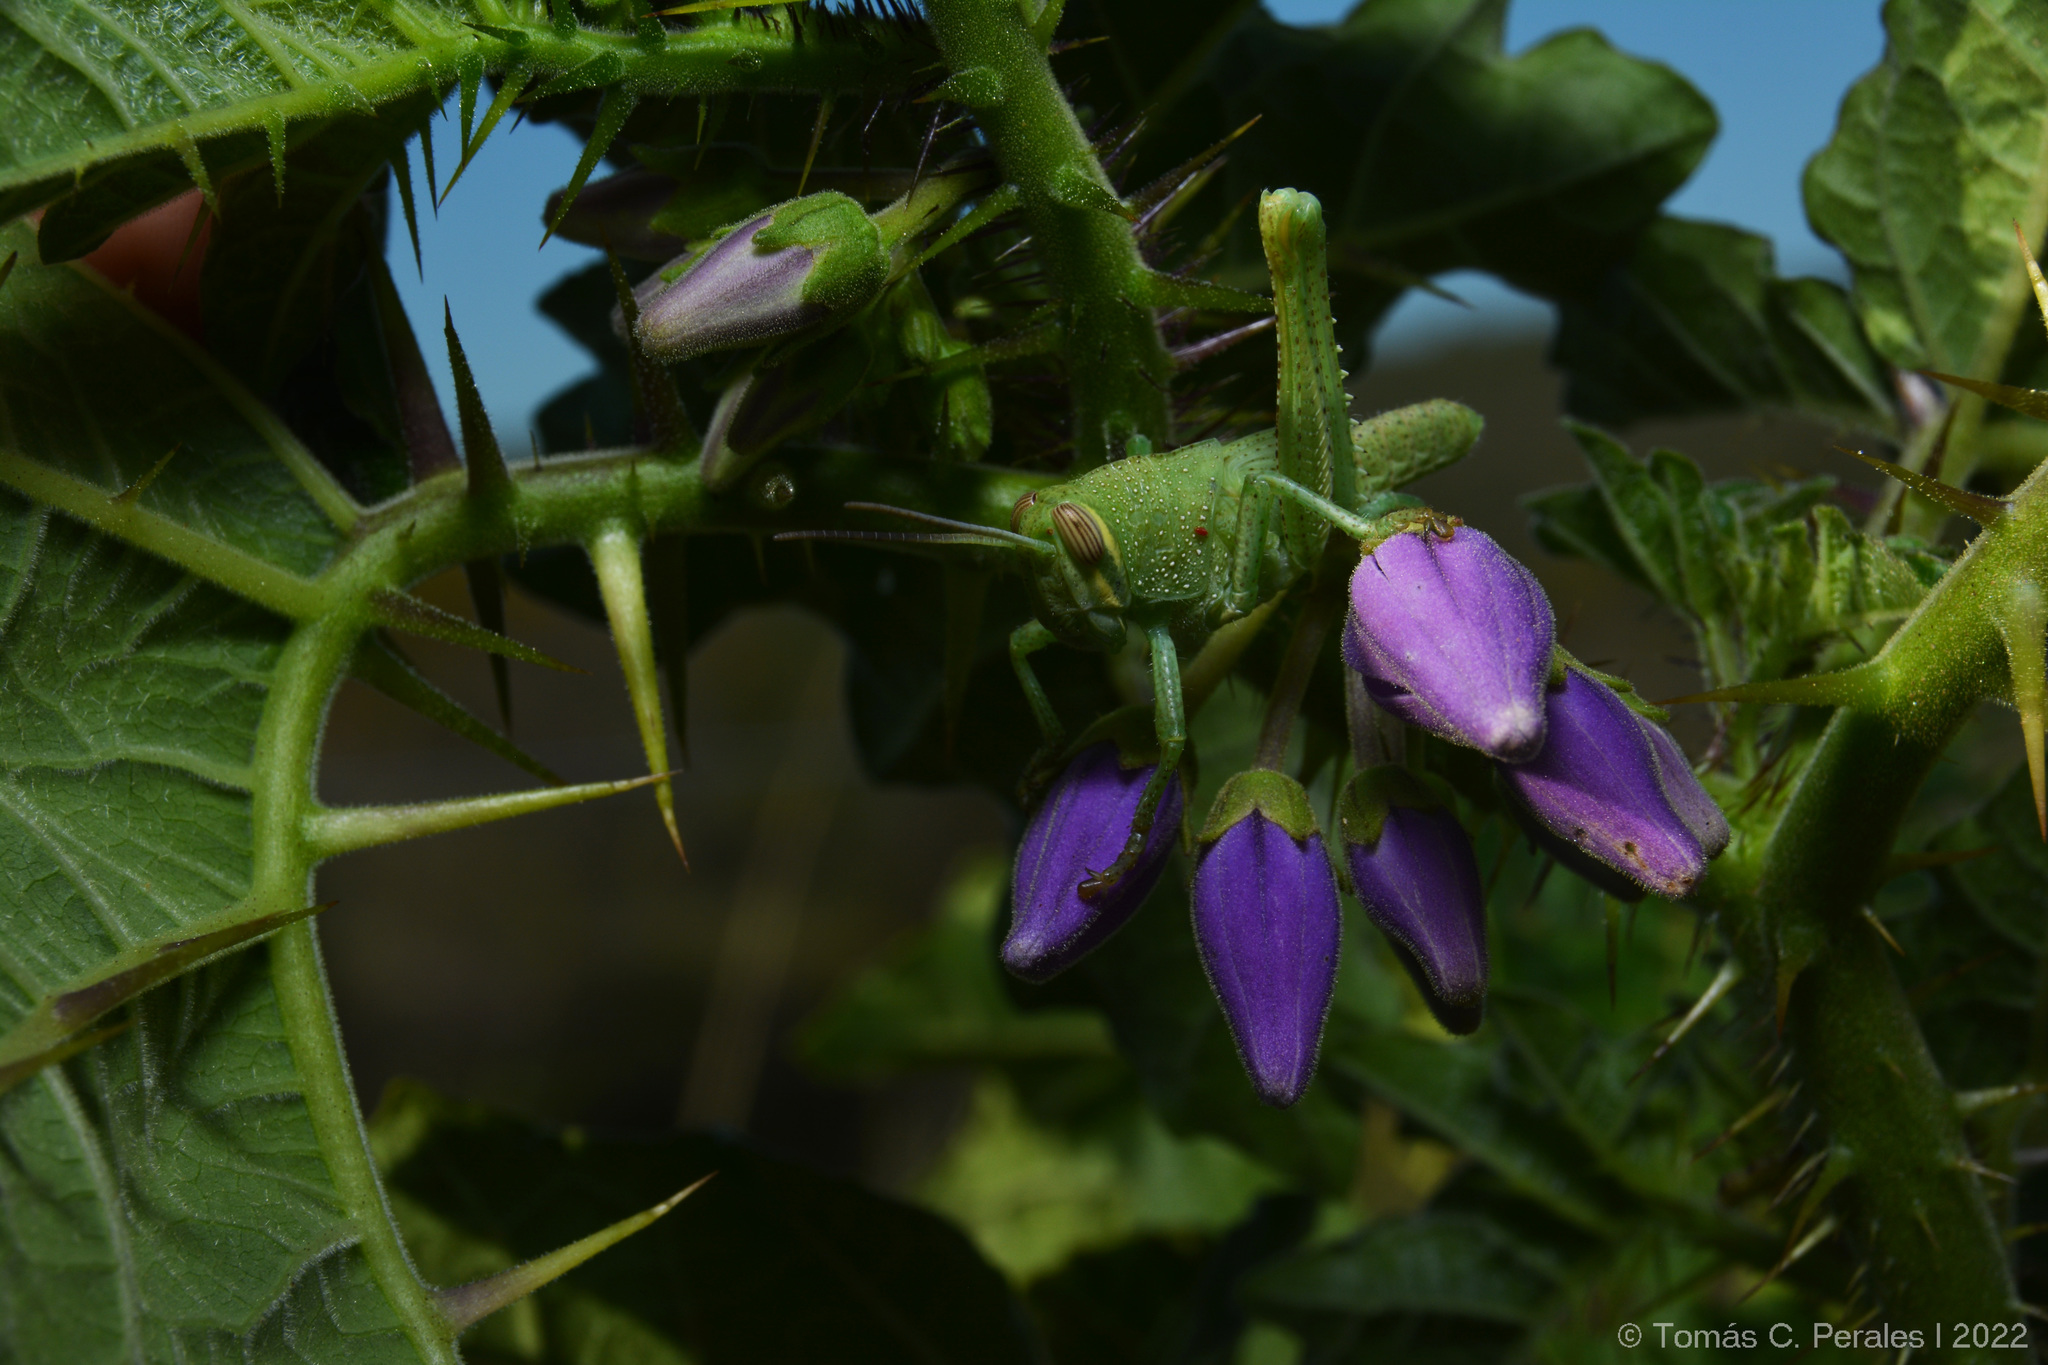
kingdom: Animalia
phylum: Arthropoda
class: Insecta
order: Orthoptera
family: Acrididae
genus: Schistocerca
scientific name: Schistocerca cancellata
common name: South american locust
